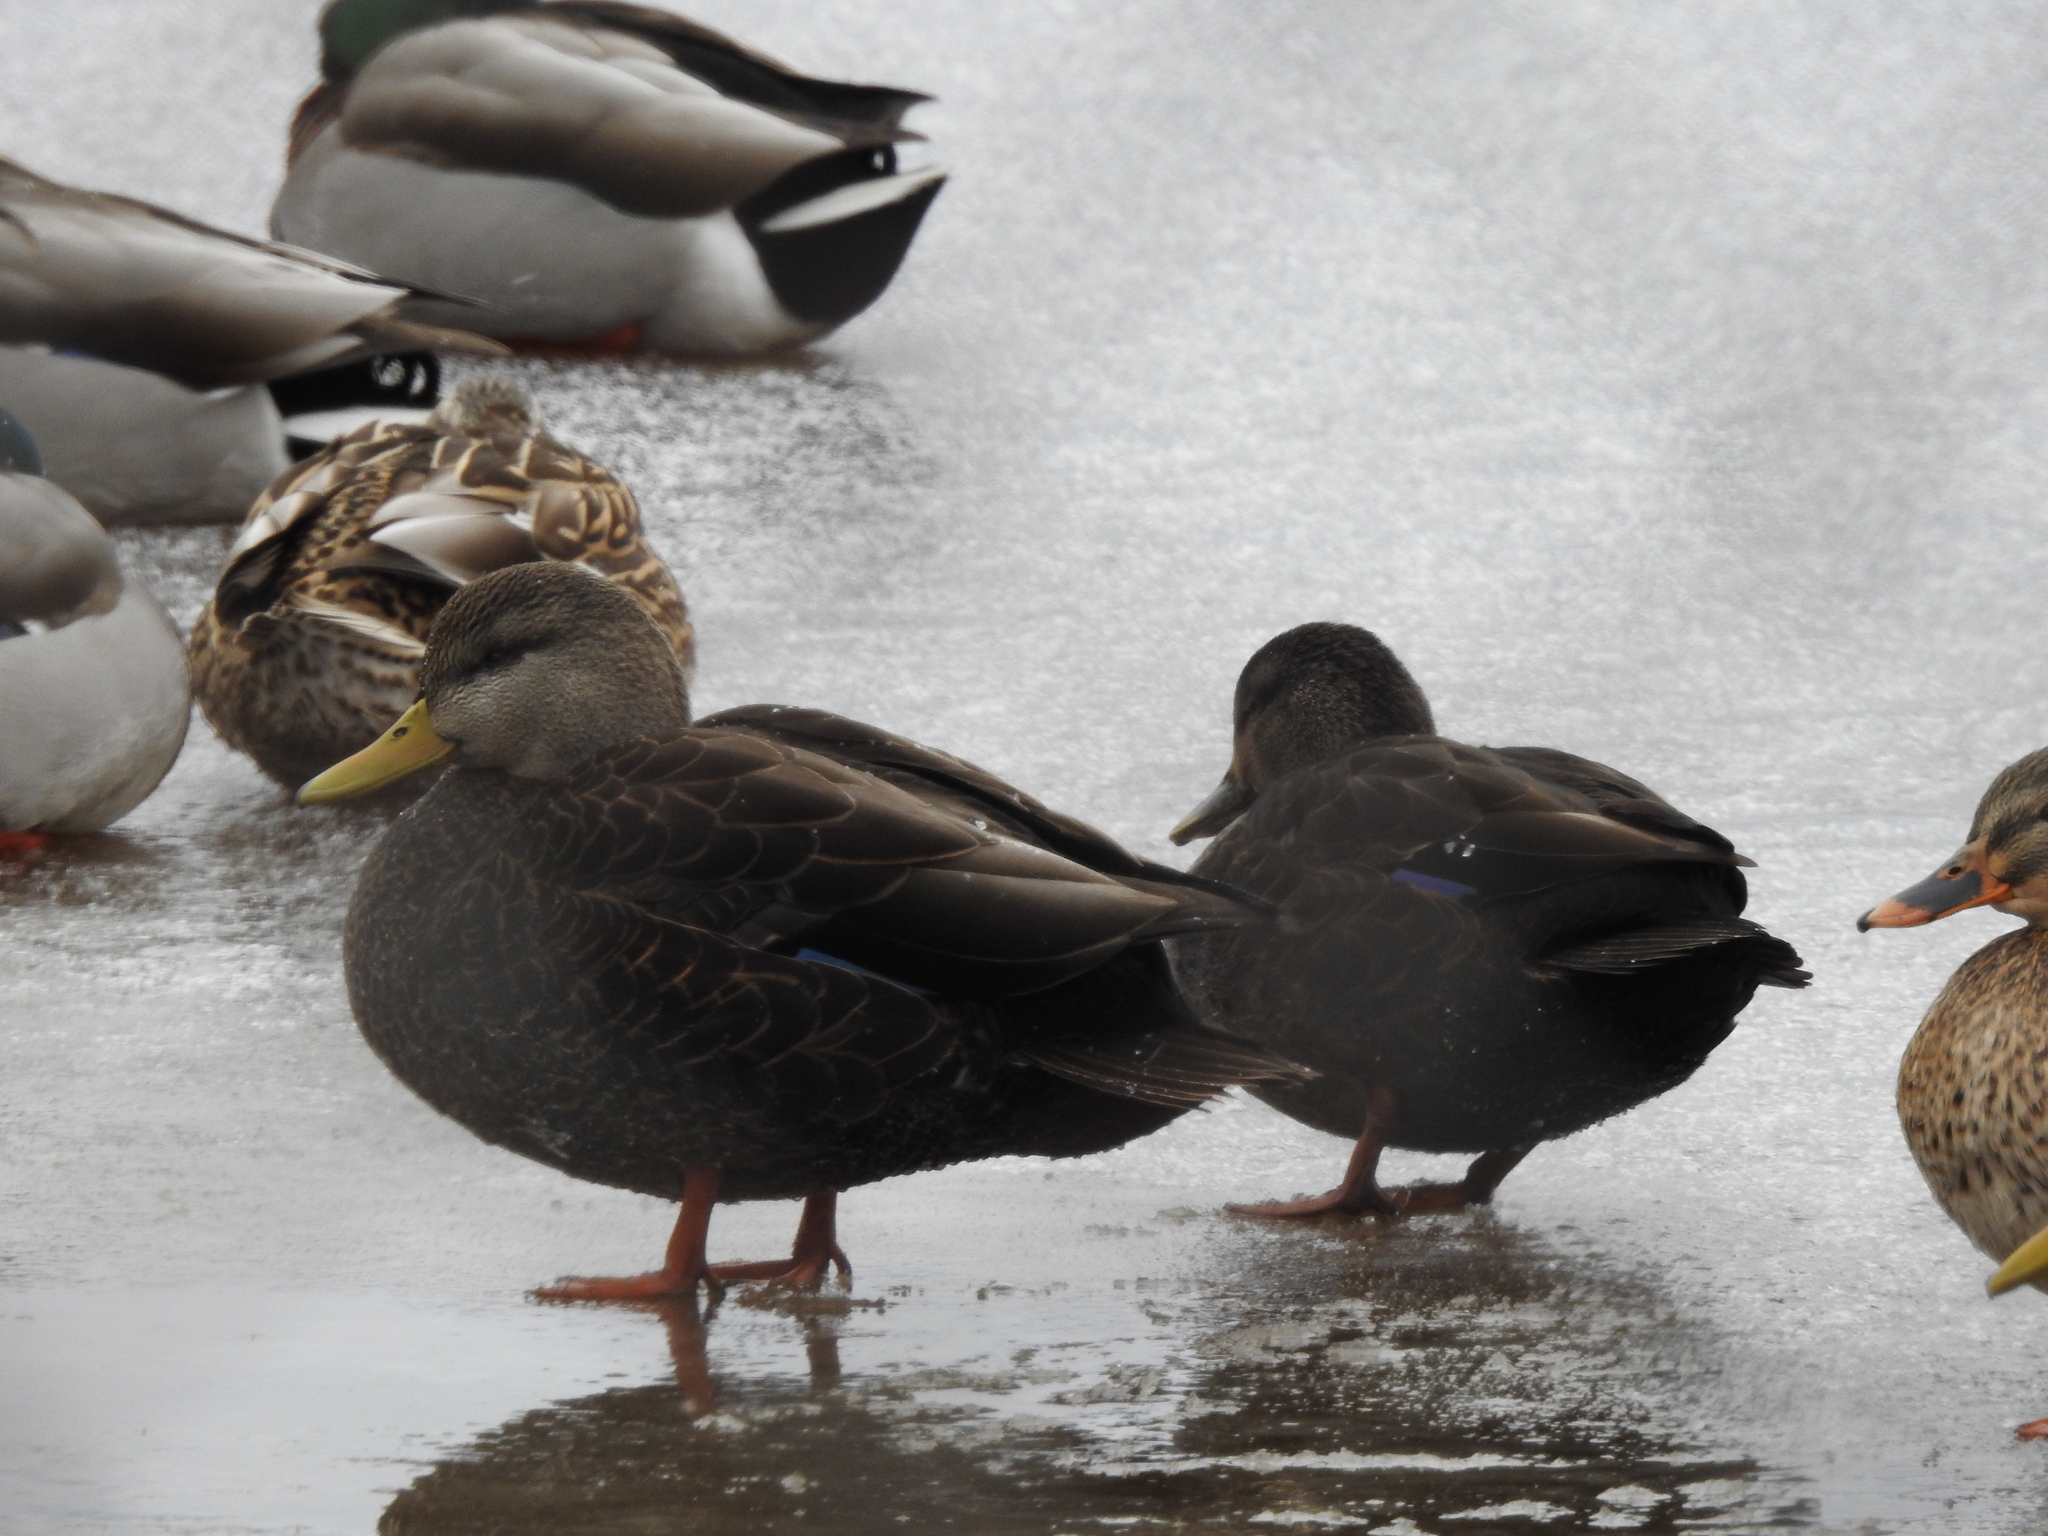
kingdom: Animalia
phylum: Chordata
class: Aves
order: Anseriformes
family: Anatidae
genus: Anas
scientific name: Anas rubripes
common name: American black duck
